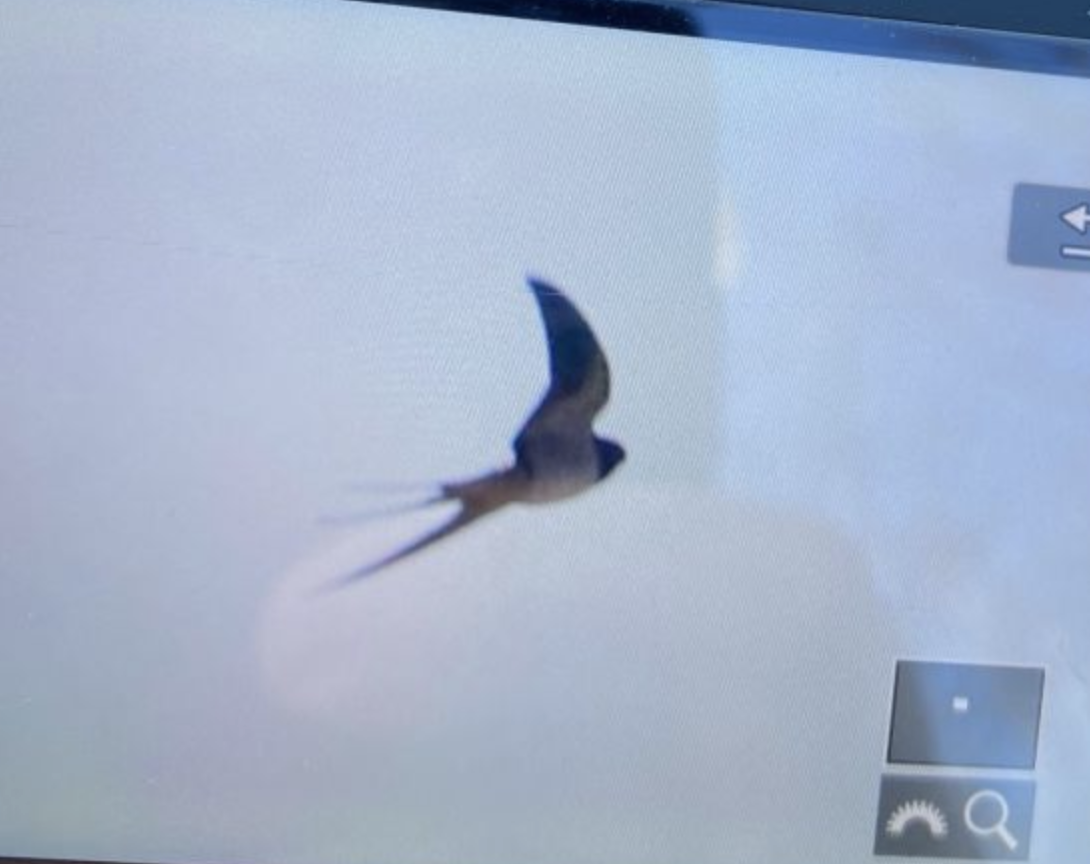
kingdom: Animalia
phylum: Chordata
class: Aves
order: Passeriformes
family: Hirundinidae
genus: Hirundo
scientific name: Hirundo rustica
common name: Barn swallow
